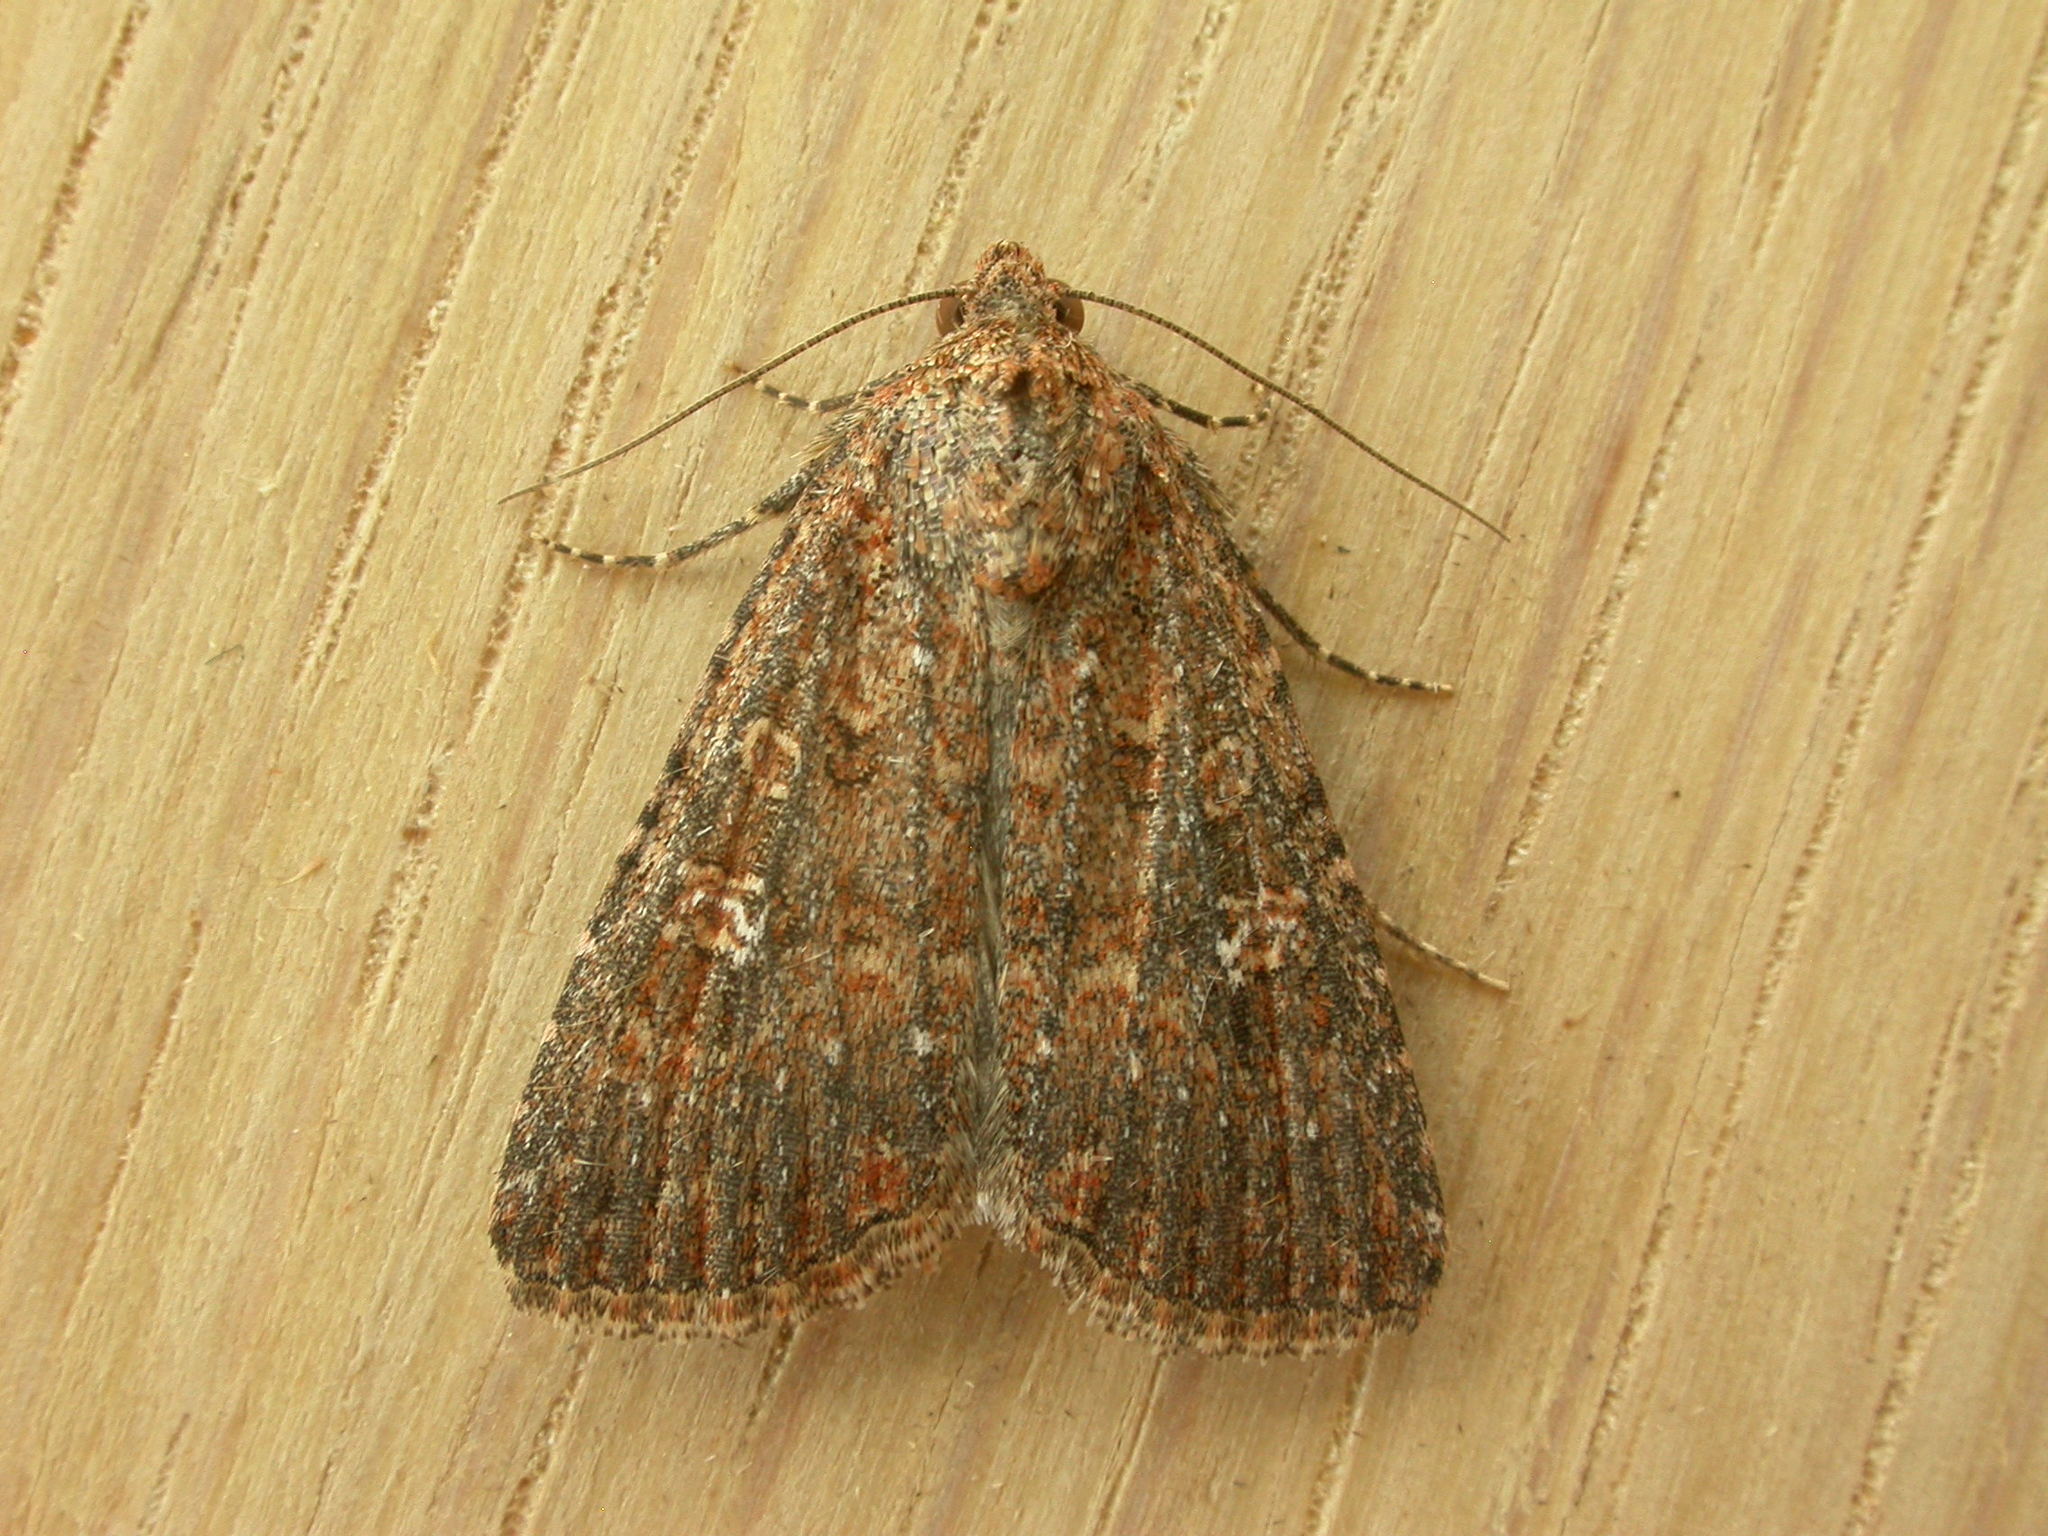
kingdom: Animalia
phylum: Arthropoda
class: Insecta
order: Lepidoptera
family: Noctuidae
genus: Hypoperigea
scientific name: Hypoperigea tonsa
